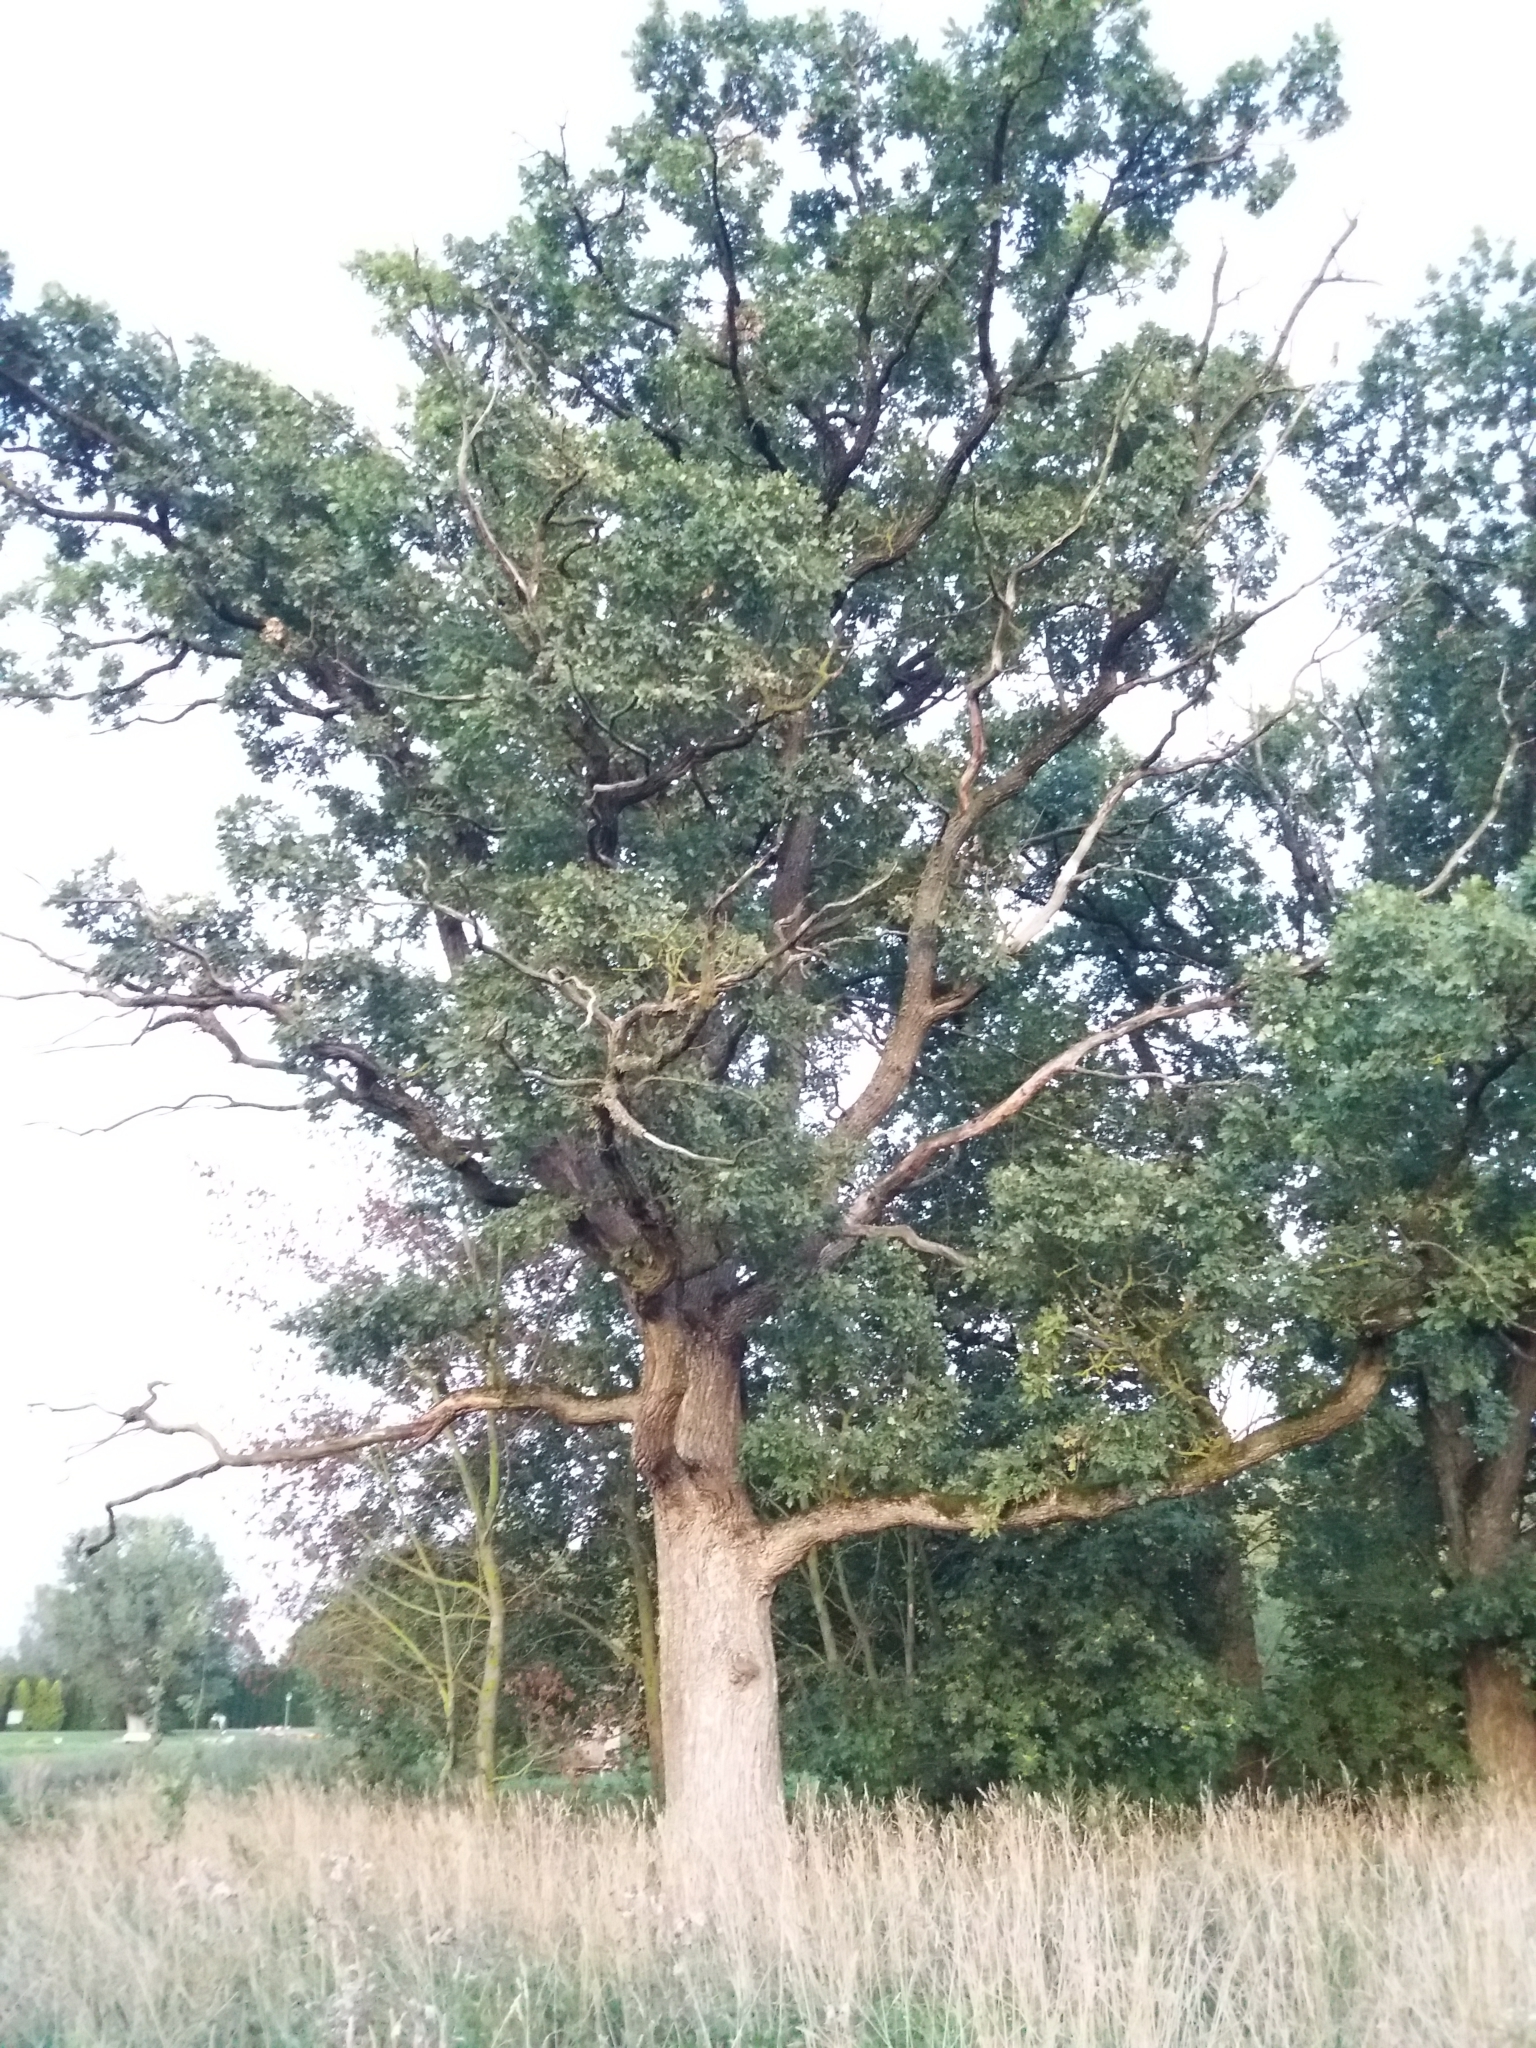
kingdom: Plantae
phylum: Tracheophyta
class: Magnoliopsida
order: Fagales
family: Fagaceae
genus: Quercus
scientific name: Quercus robur
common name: Pedunculate oak
